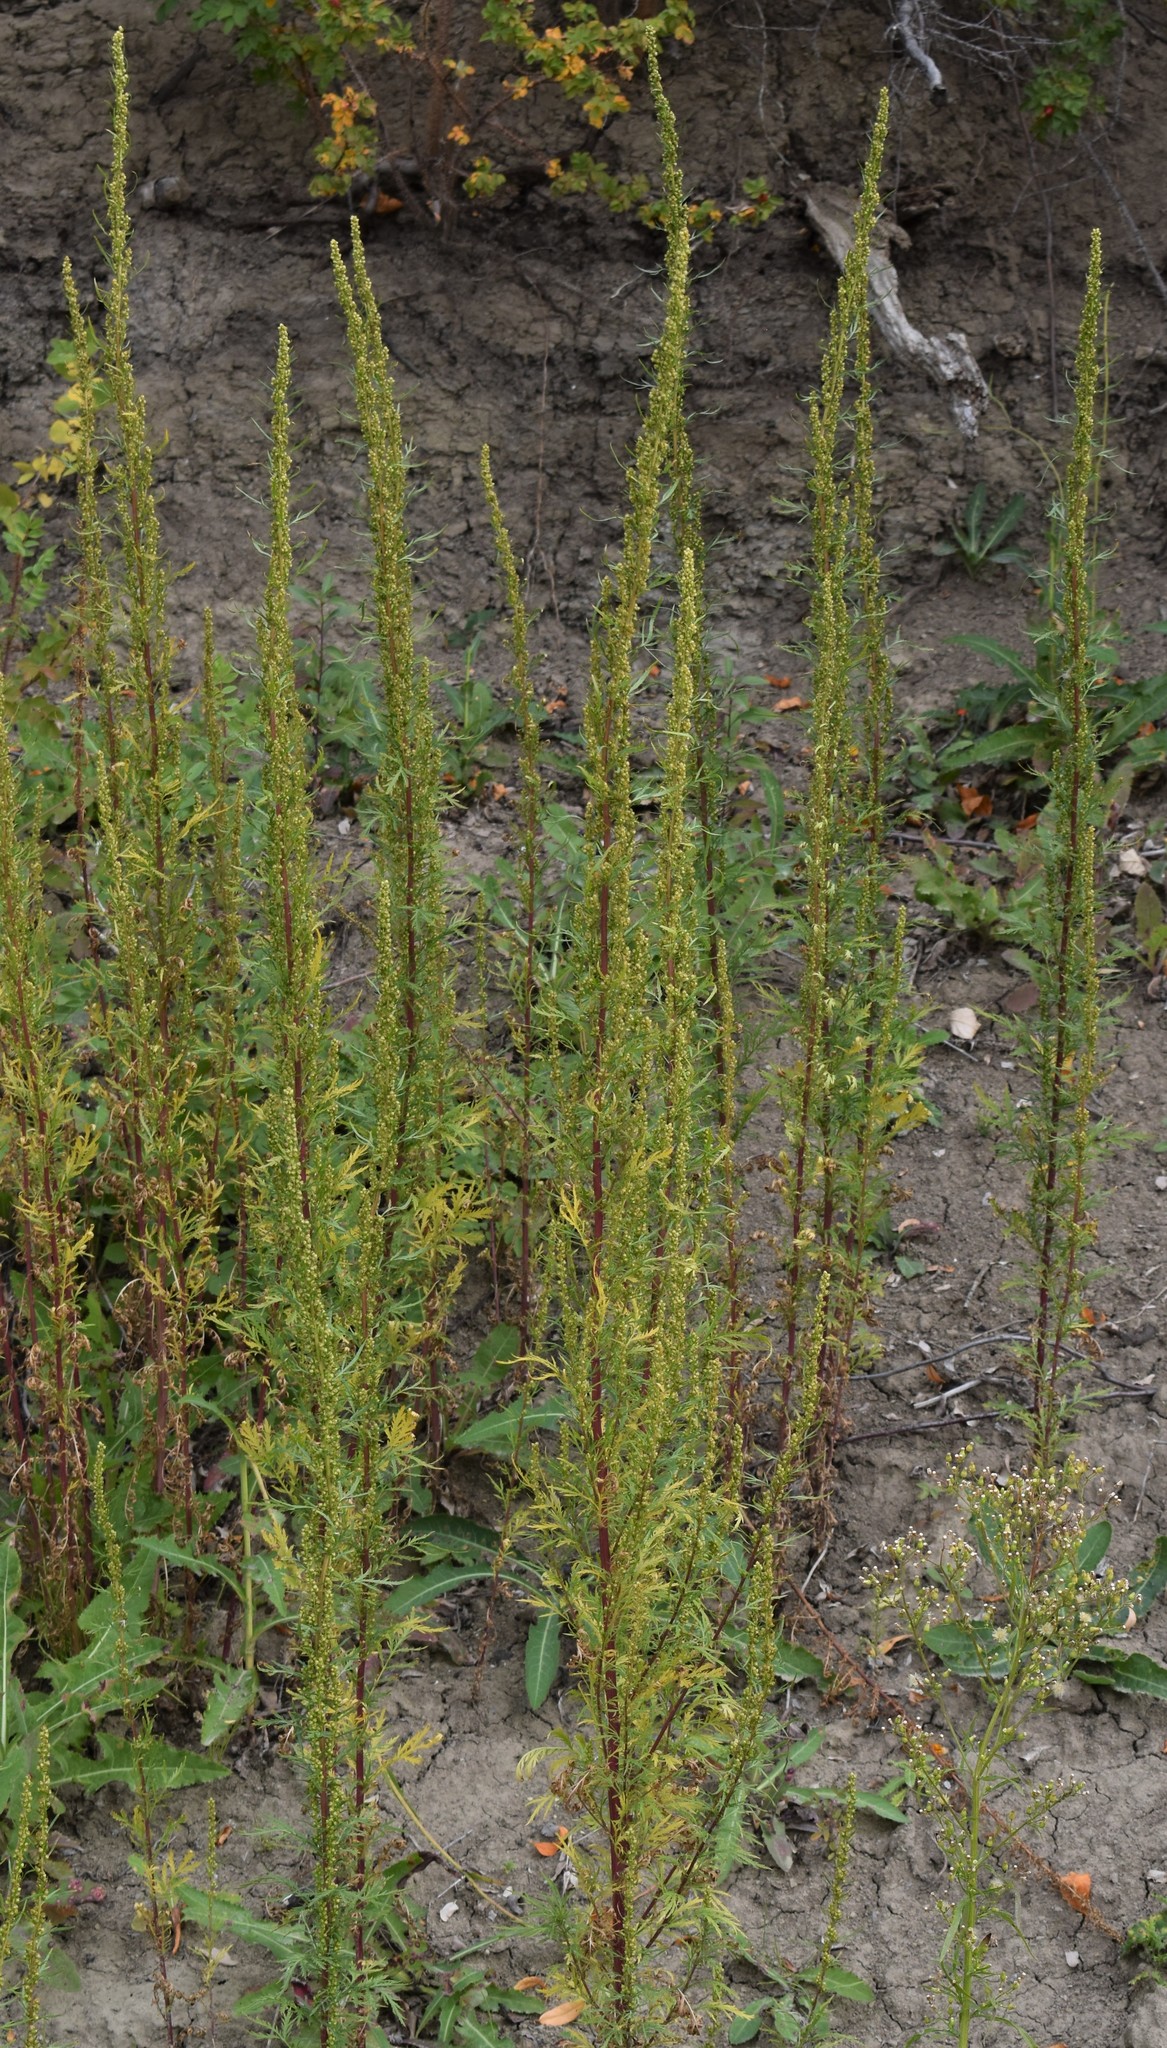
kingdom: Plantae
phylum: Tracheophyta
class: Magnoliopsida
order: Asterales
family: Asteraceae
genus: Artemisia
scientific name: Artemisia biennis
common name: Biennial wormwood
